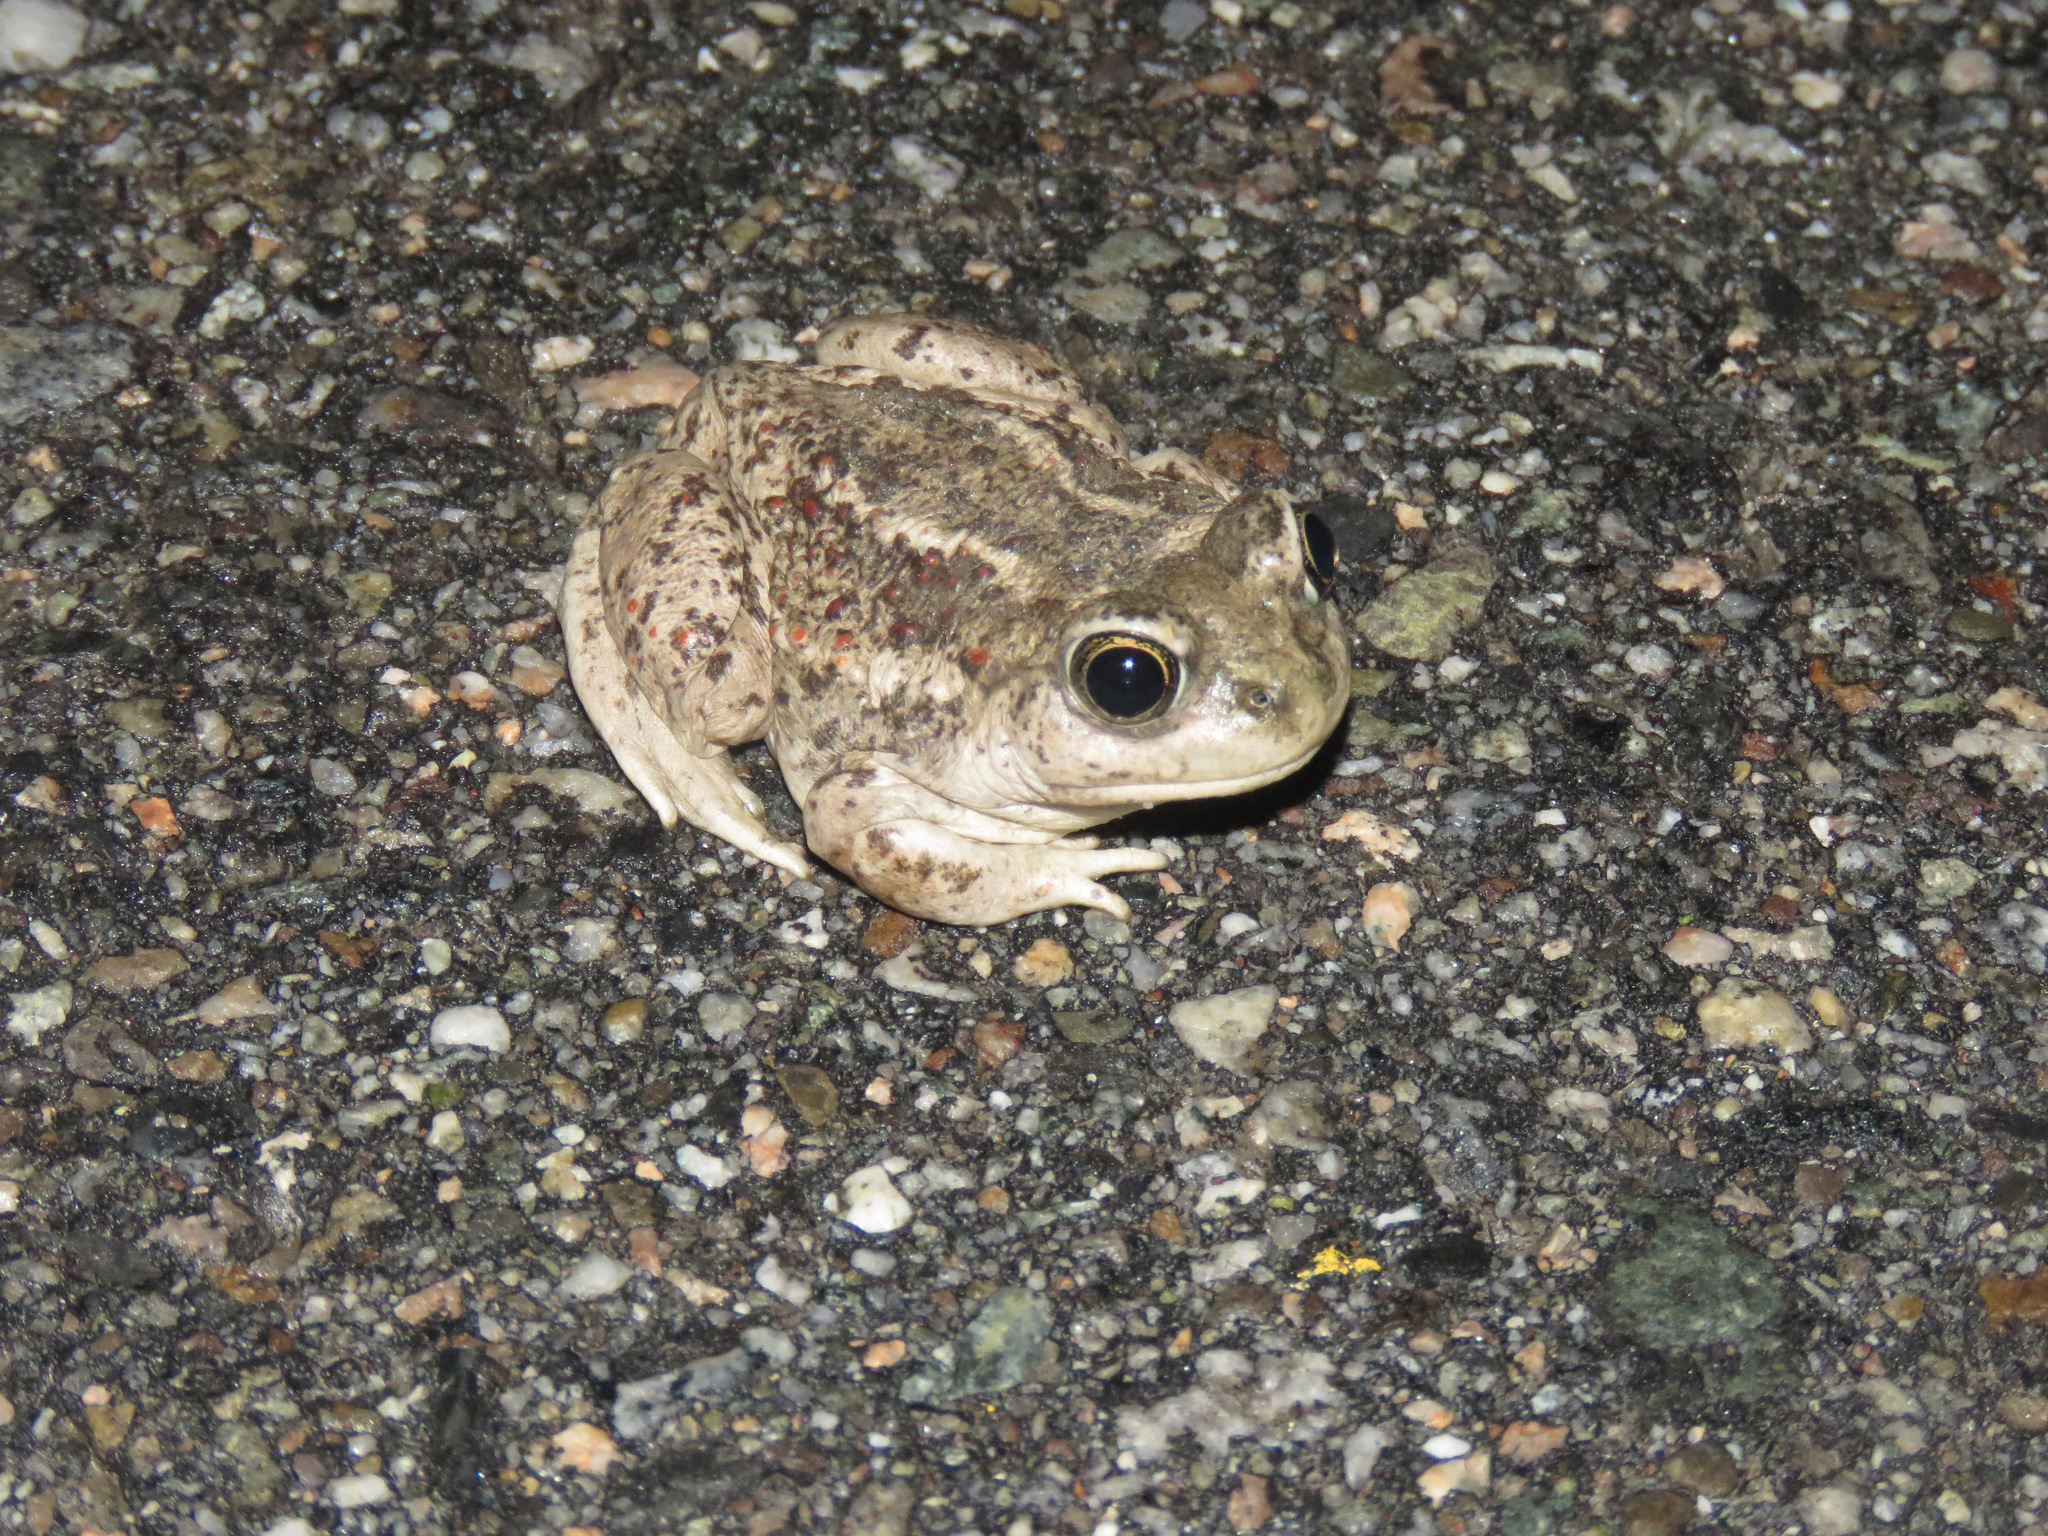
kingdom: Animalia
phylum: Chordata
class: Amphibia
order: Anura
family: Scaphiopodidae
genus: Spea
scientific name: Spea intermontana
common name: Great basin spadefoot
